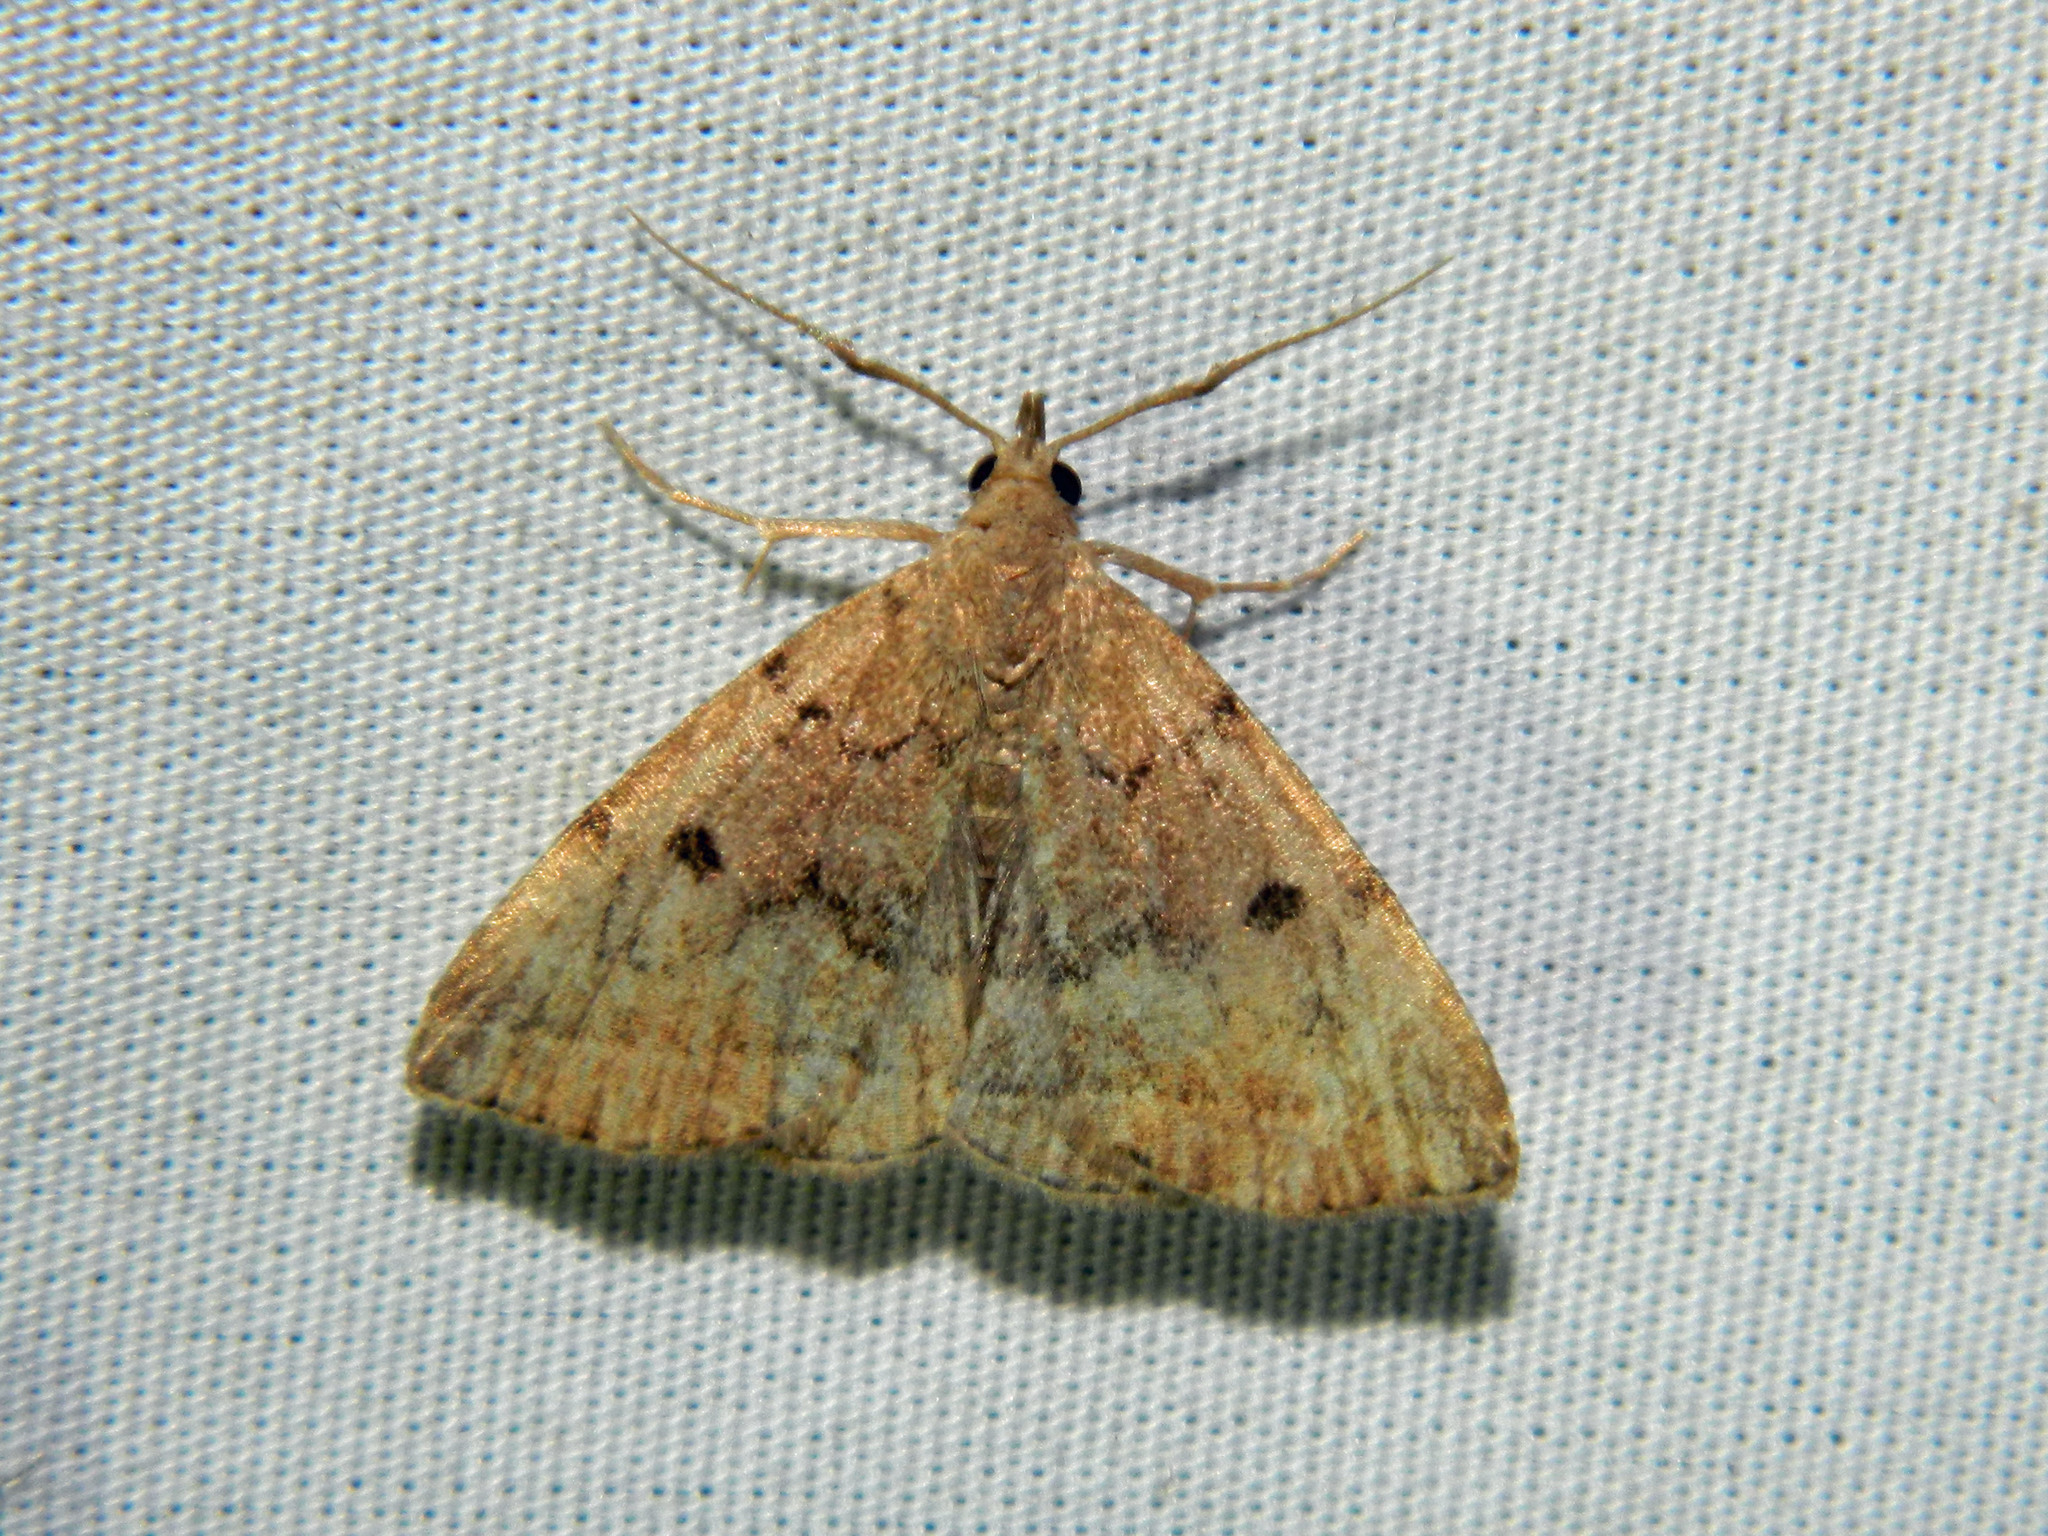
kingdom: Animalia
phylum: Arthropoda
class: Insecta
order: Lepidoptera
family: Erebidae
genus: Zanclognatha
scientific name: Zanclognatha dentata
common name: Toothed fan-foot
